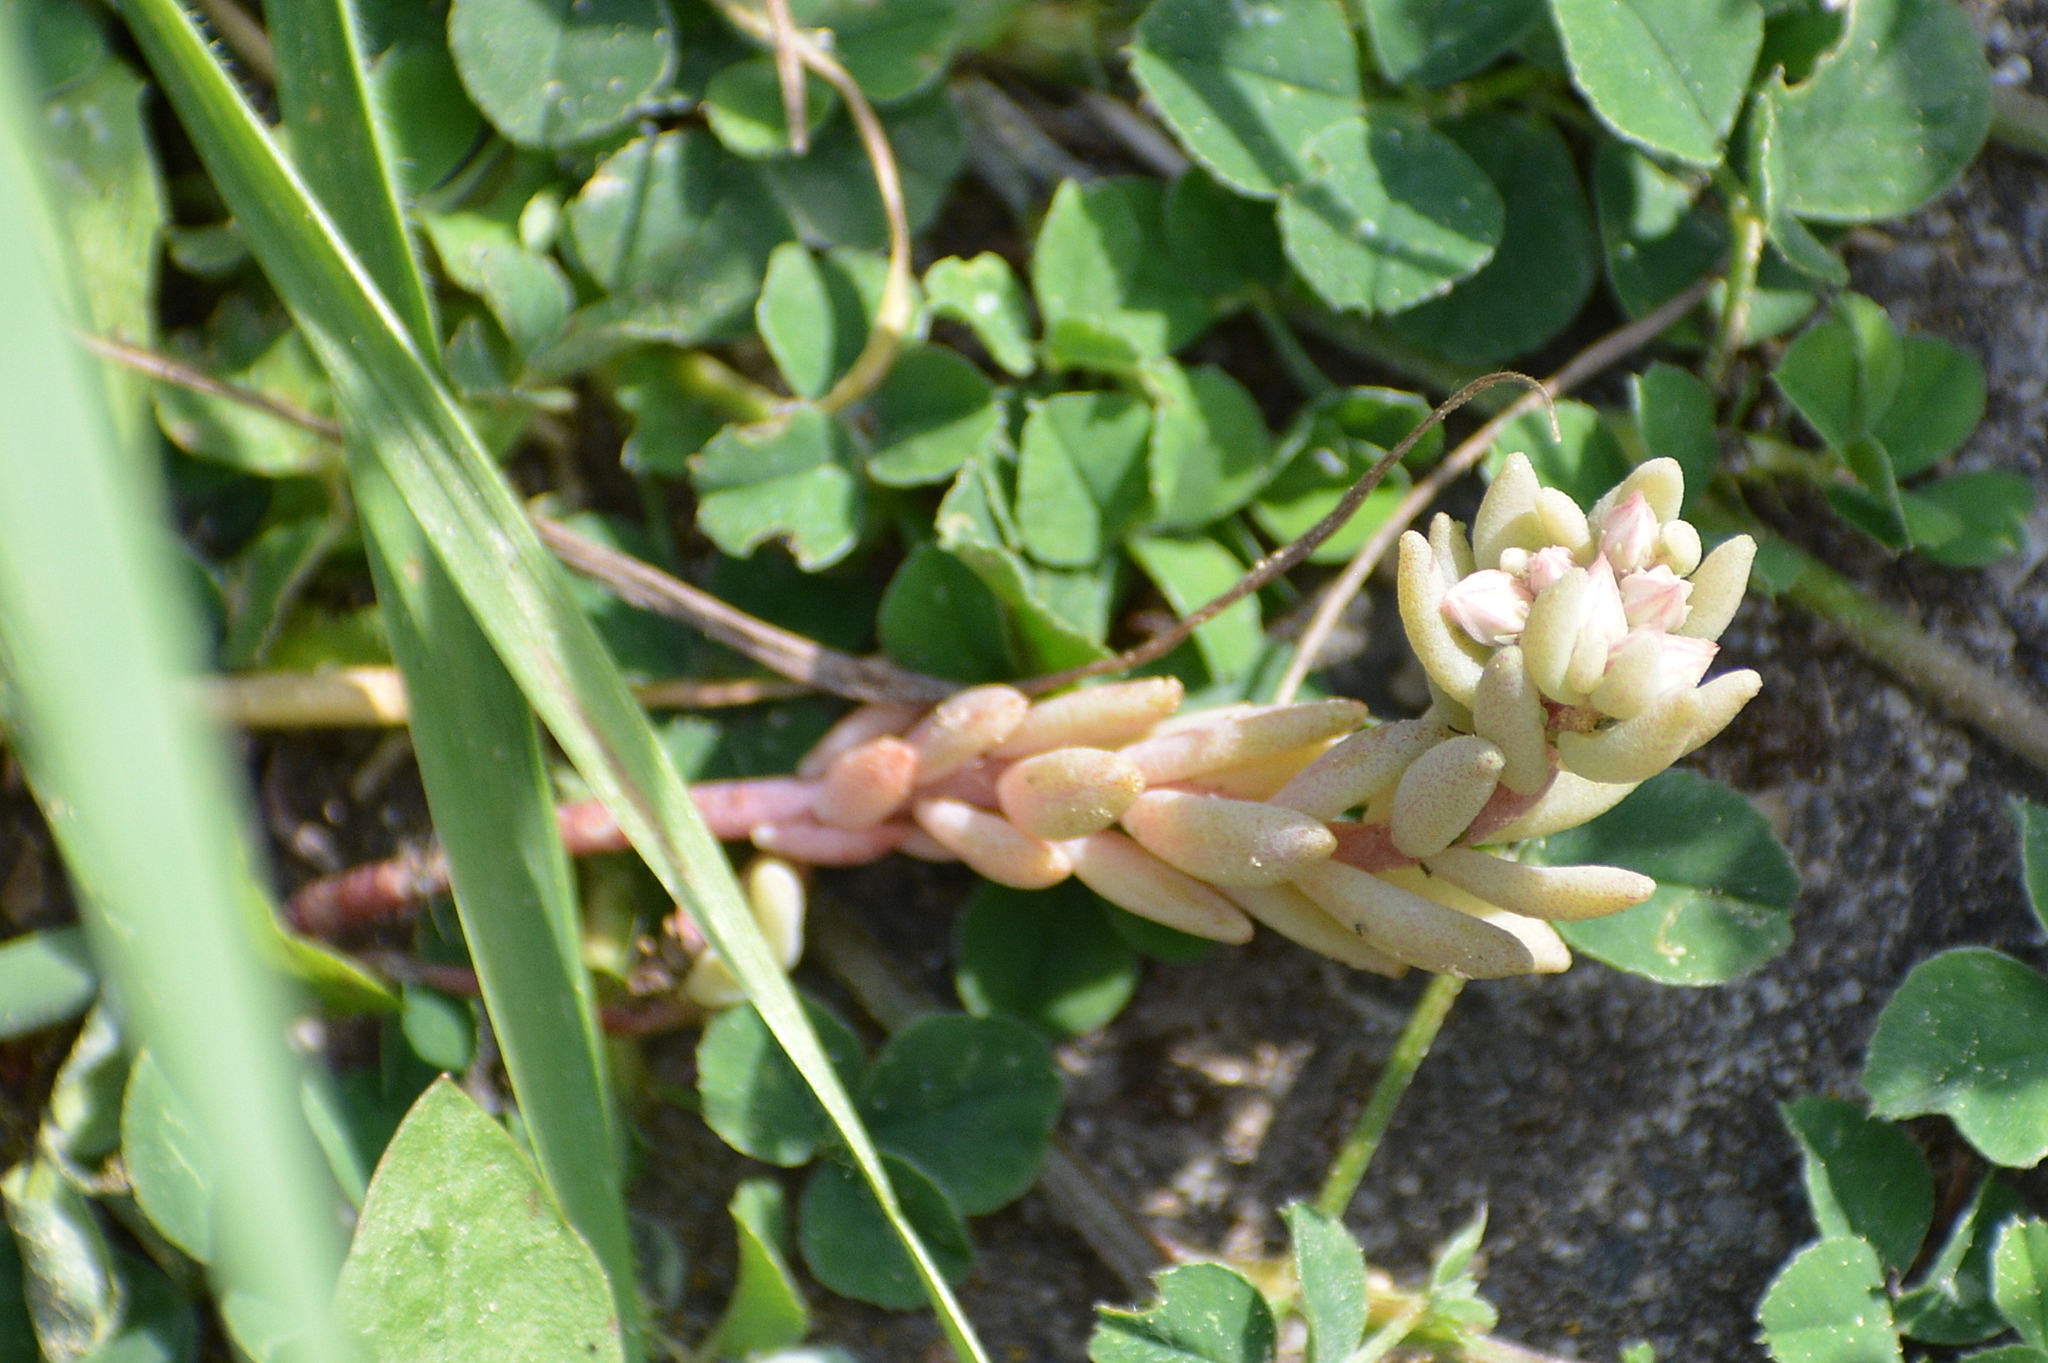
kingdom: Plantae
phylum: Tracheophyta
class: Magnoliopsida
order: Saxifragales
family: Crassulaceae
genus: Sedum
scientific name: Sedum hispanicum
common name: Spanish stonecrop
